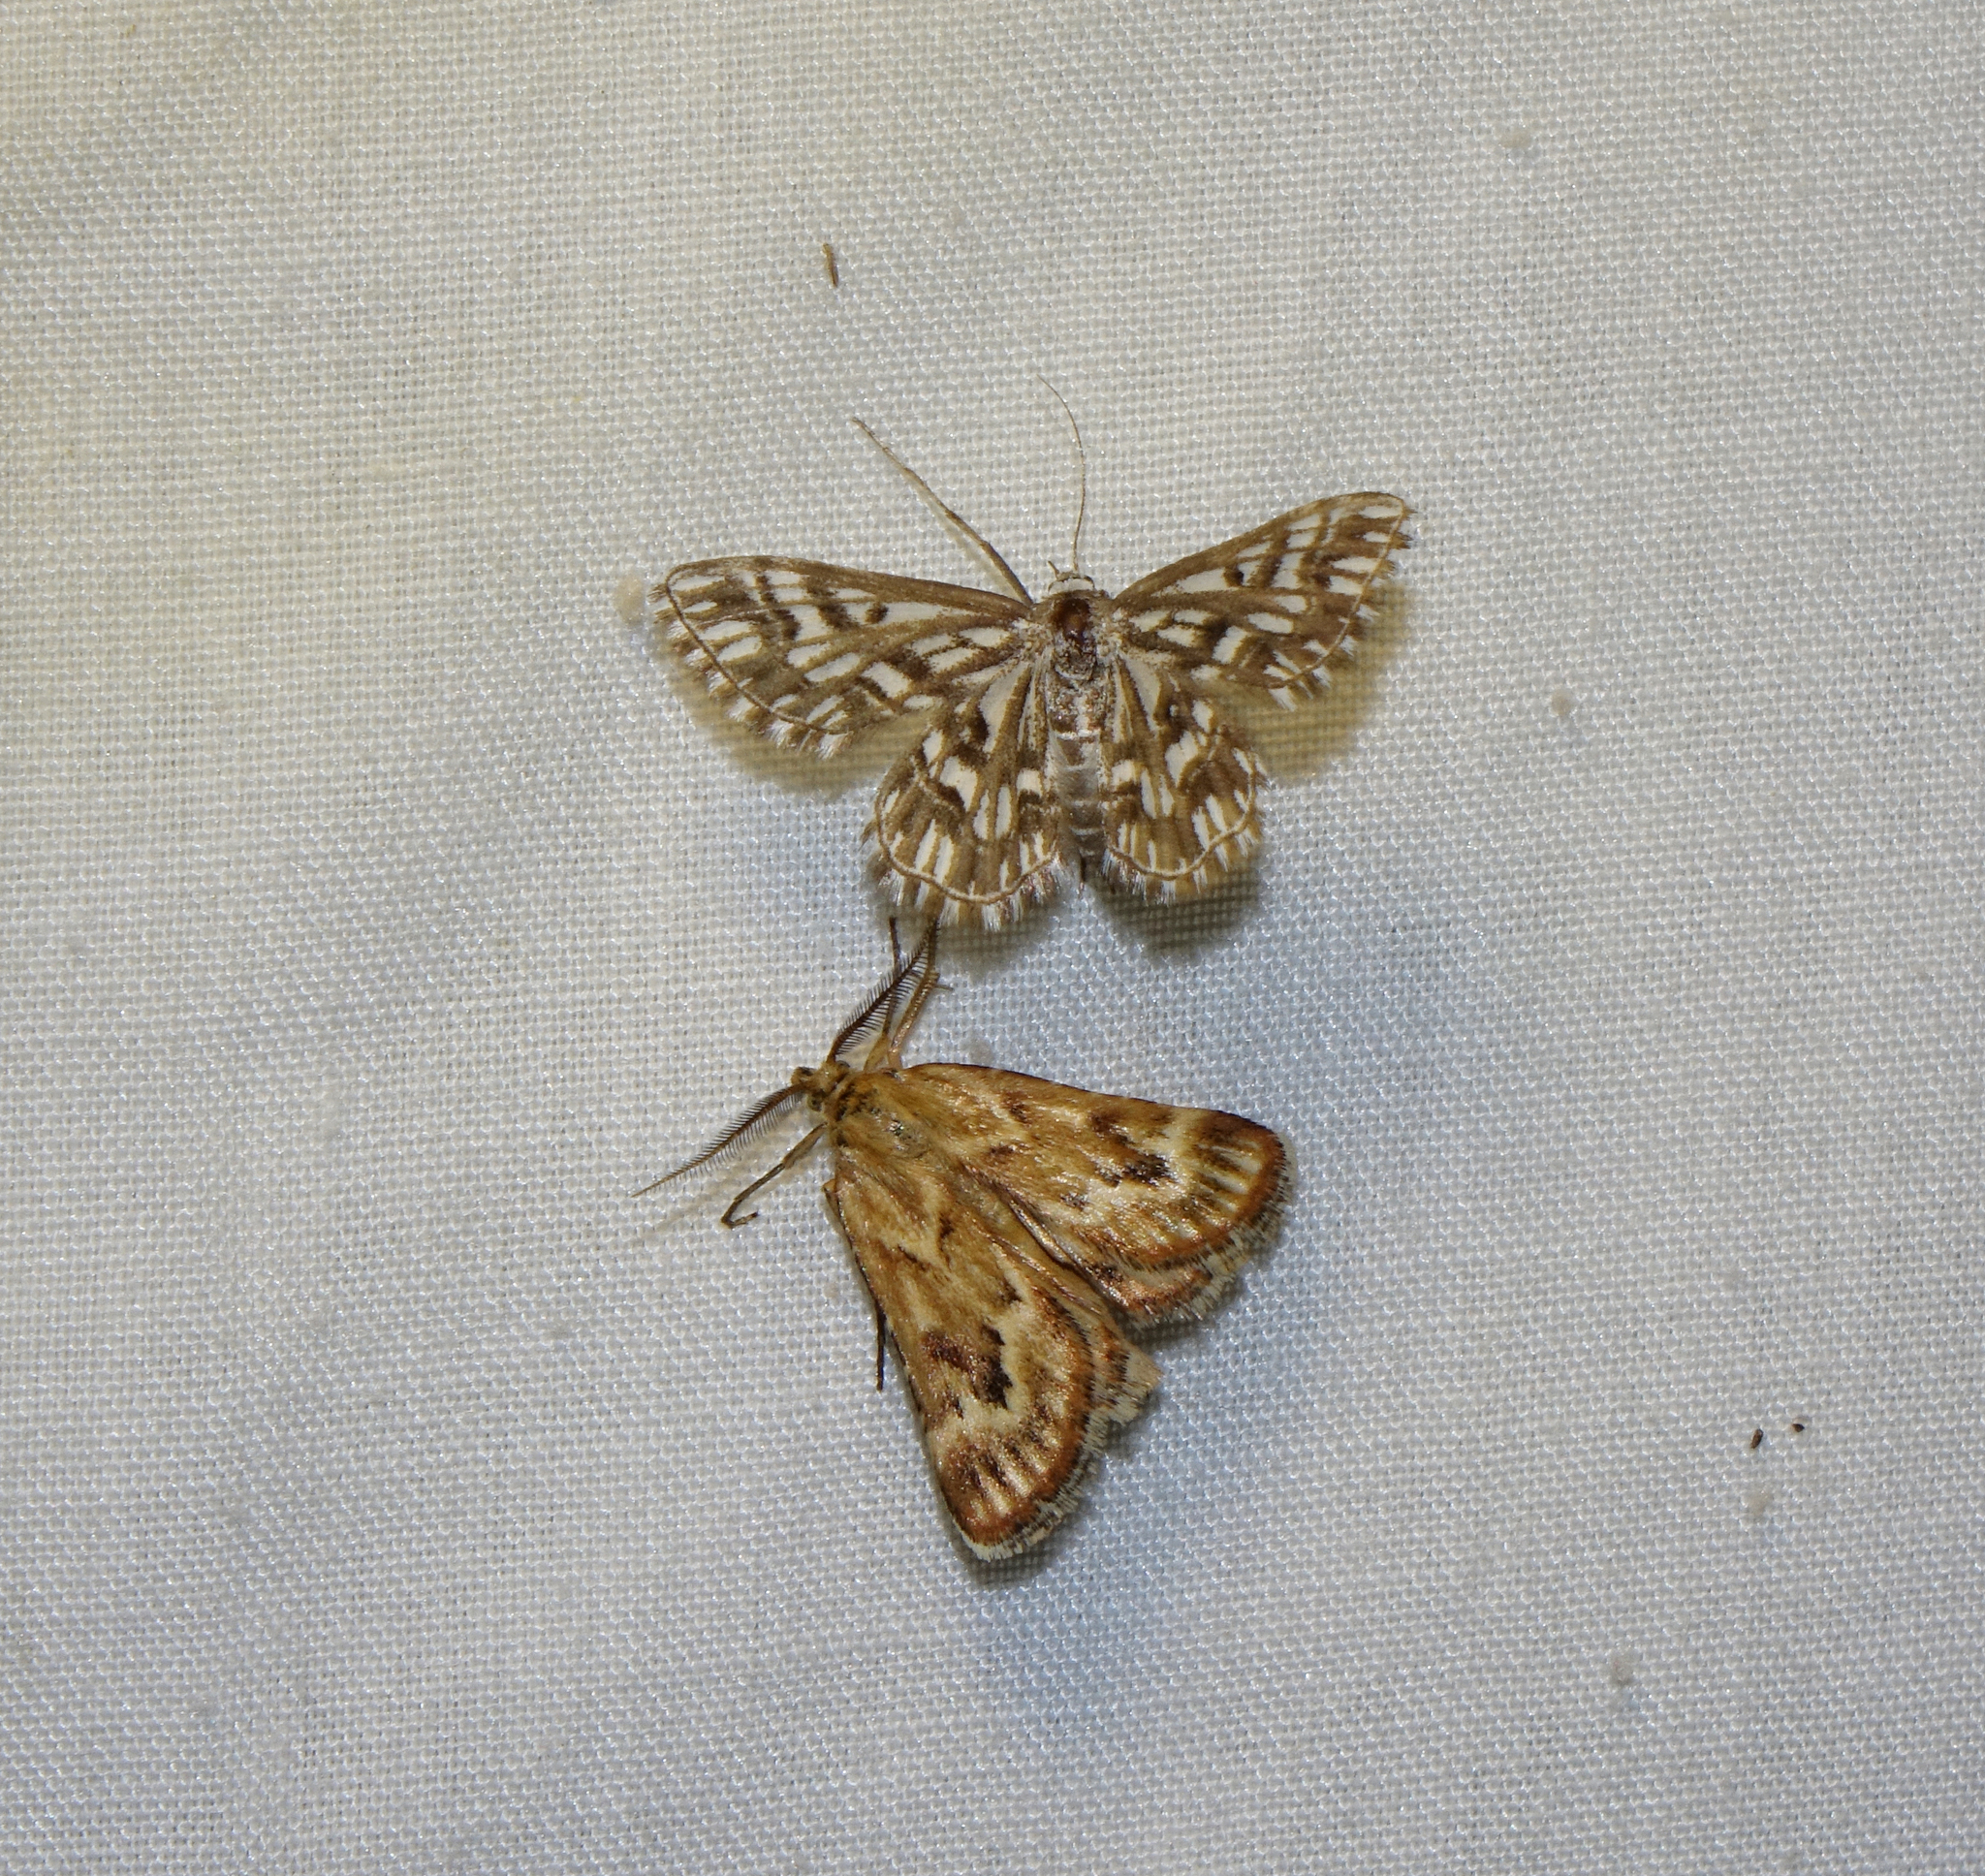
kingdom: Animalia
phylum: Arthropoda
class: Insecta
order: Lepidoptera
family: Geometridae
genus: Cinglis
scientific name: Cinglis humifusaria
